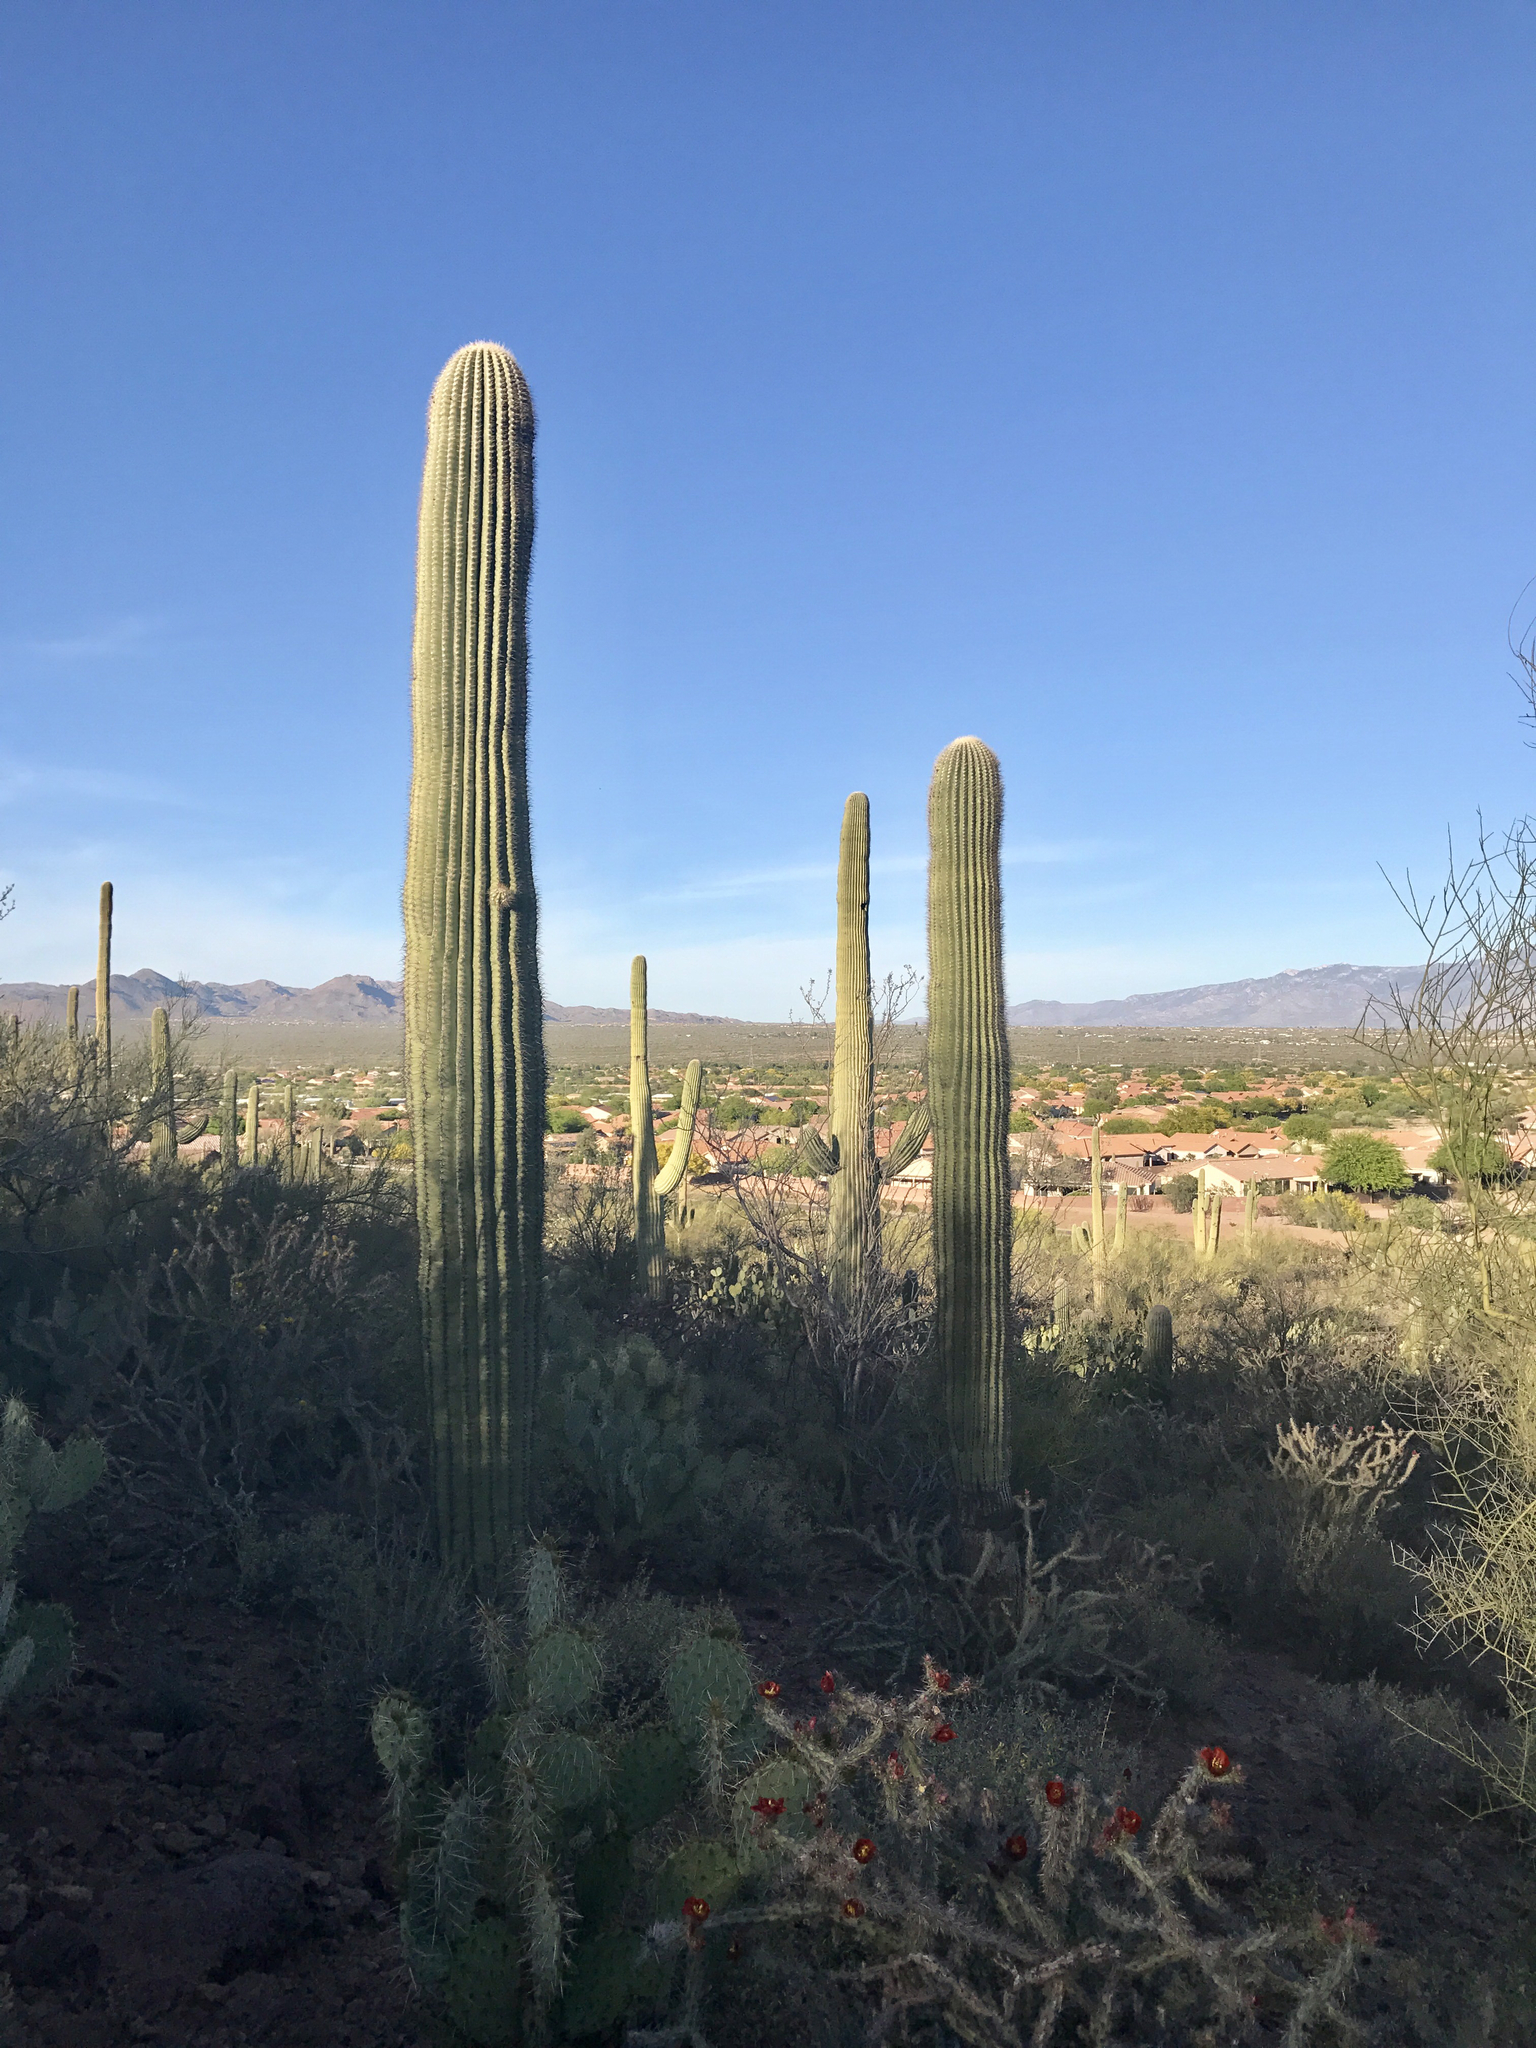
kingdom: Plantae
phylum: Tracheophyta
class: Magnoliopsida
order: Caryophyllales
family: Cactaceae
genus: Carnegiea
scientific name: Carnegiea gigantea
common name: Saguaro
